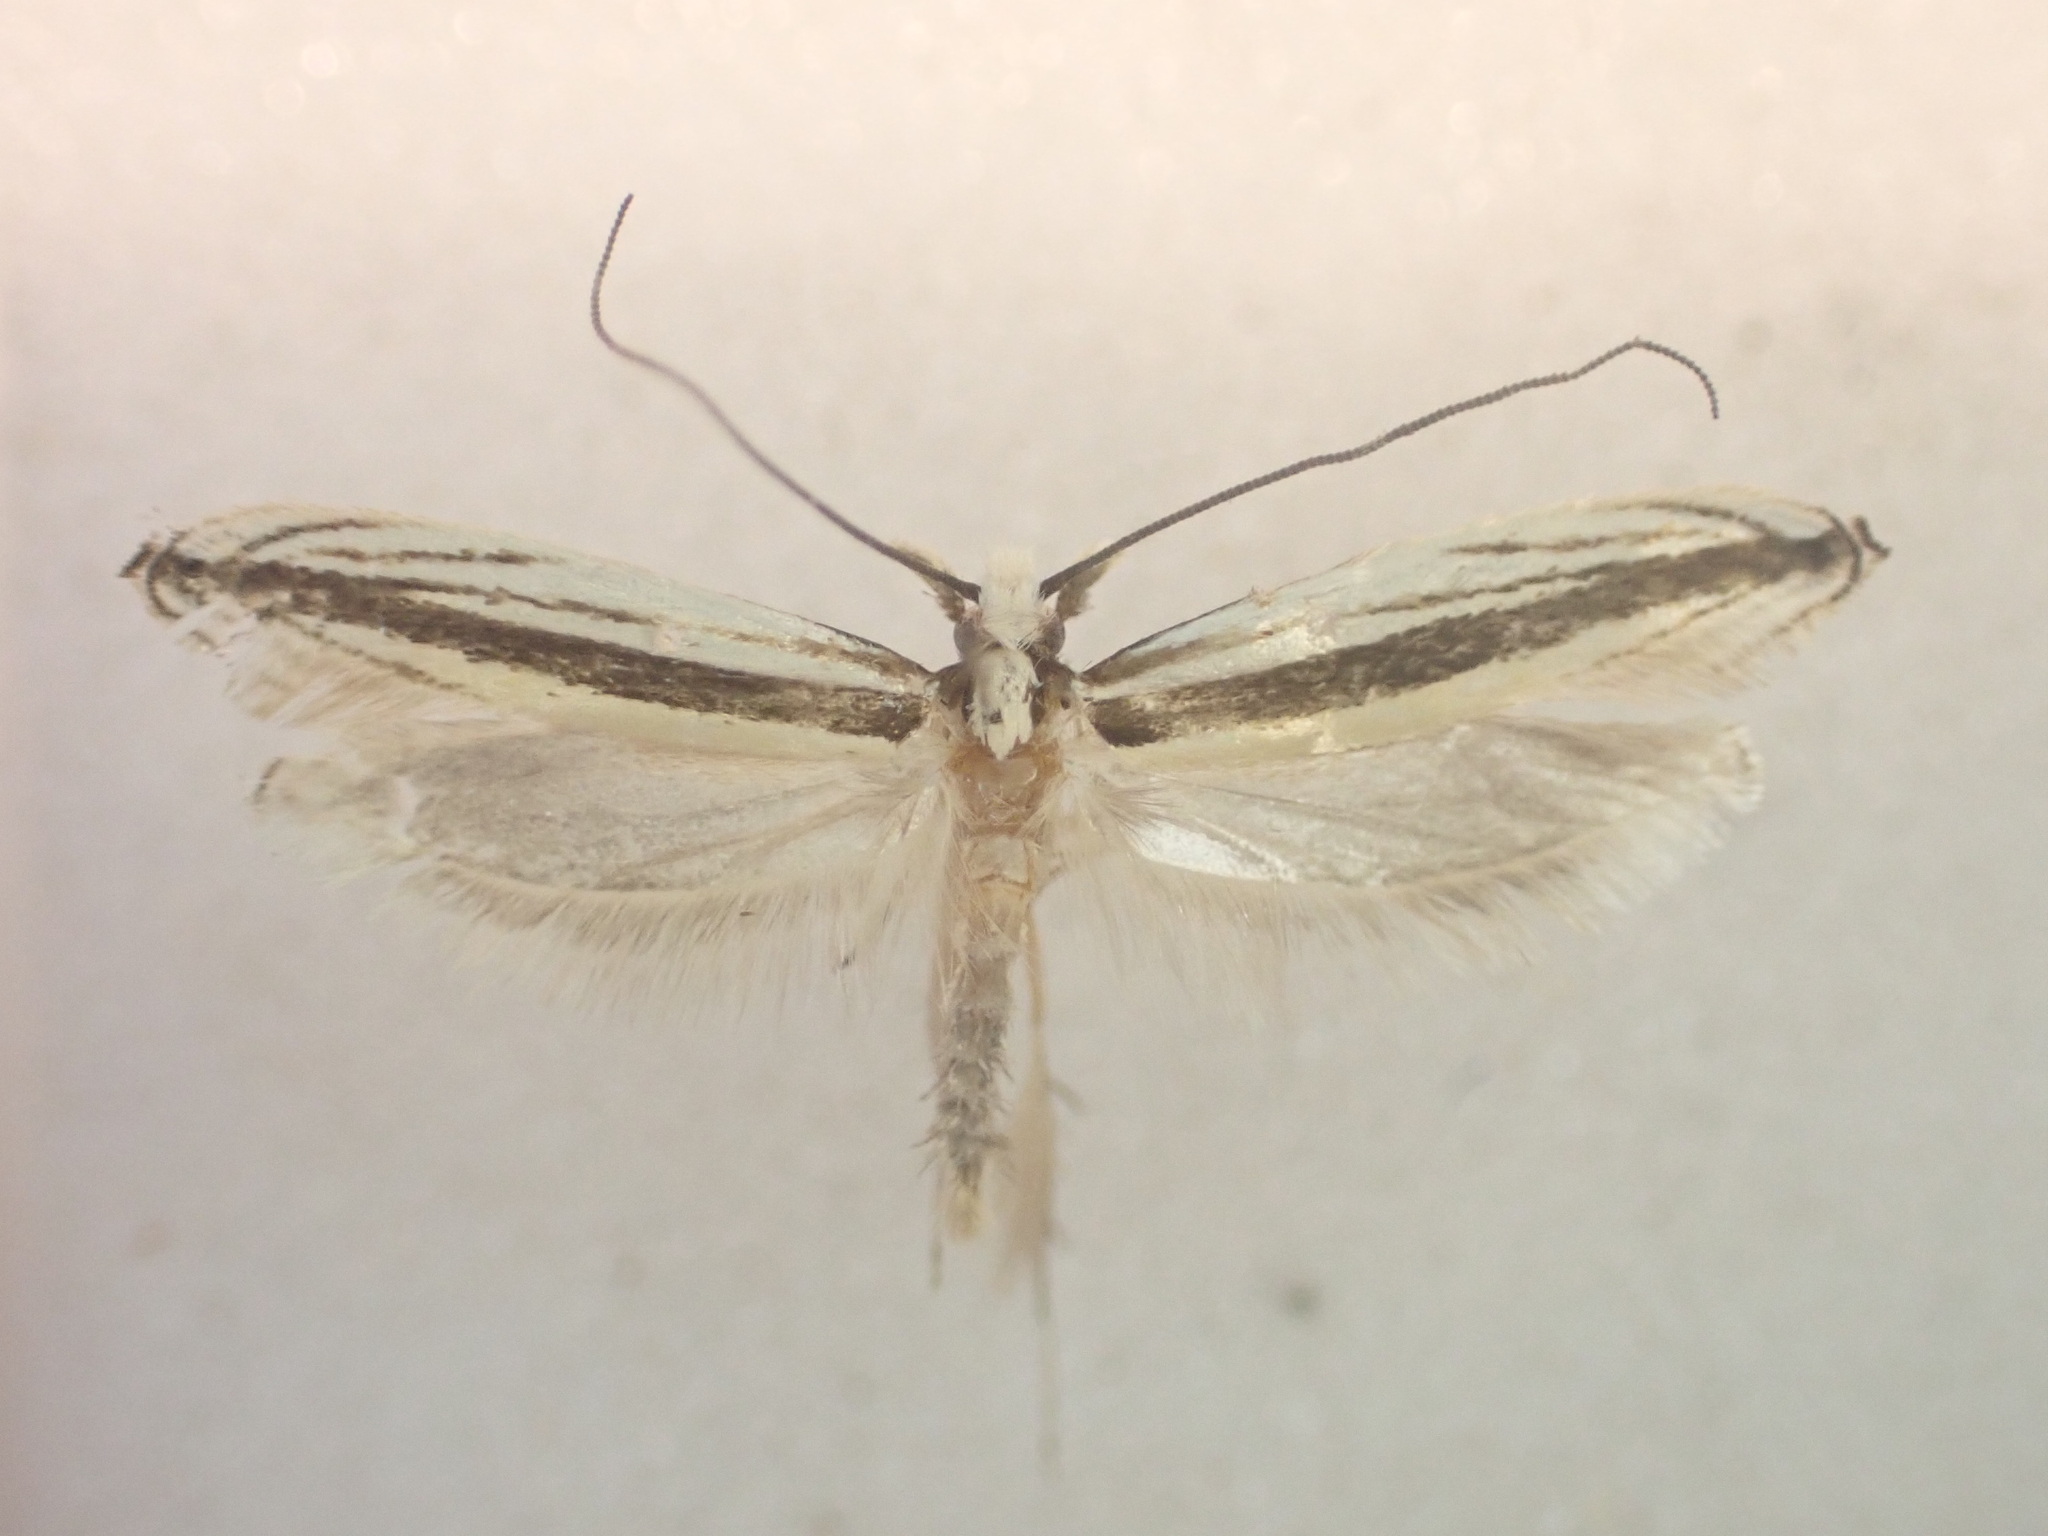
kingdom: Animalia
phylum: Arthropoda
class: Insecta
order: Lepidoptera
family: Tineidae
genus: Erechthias
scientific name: Erechthias stilbella
